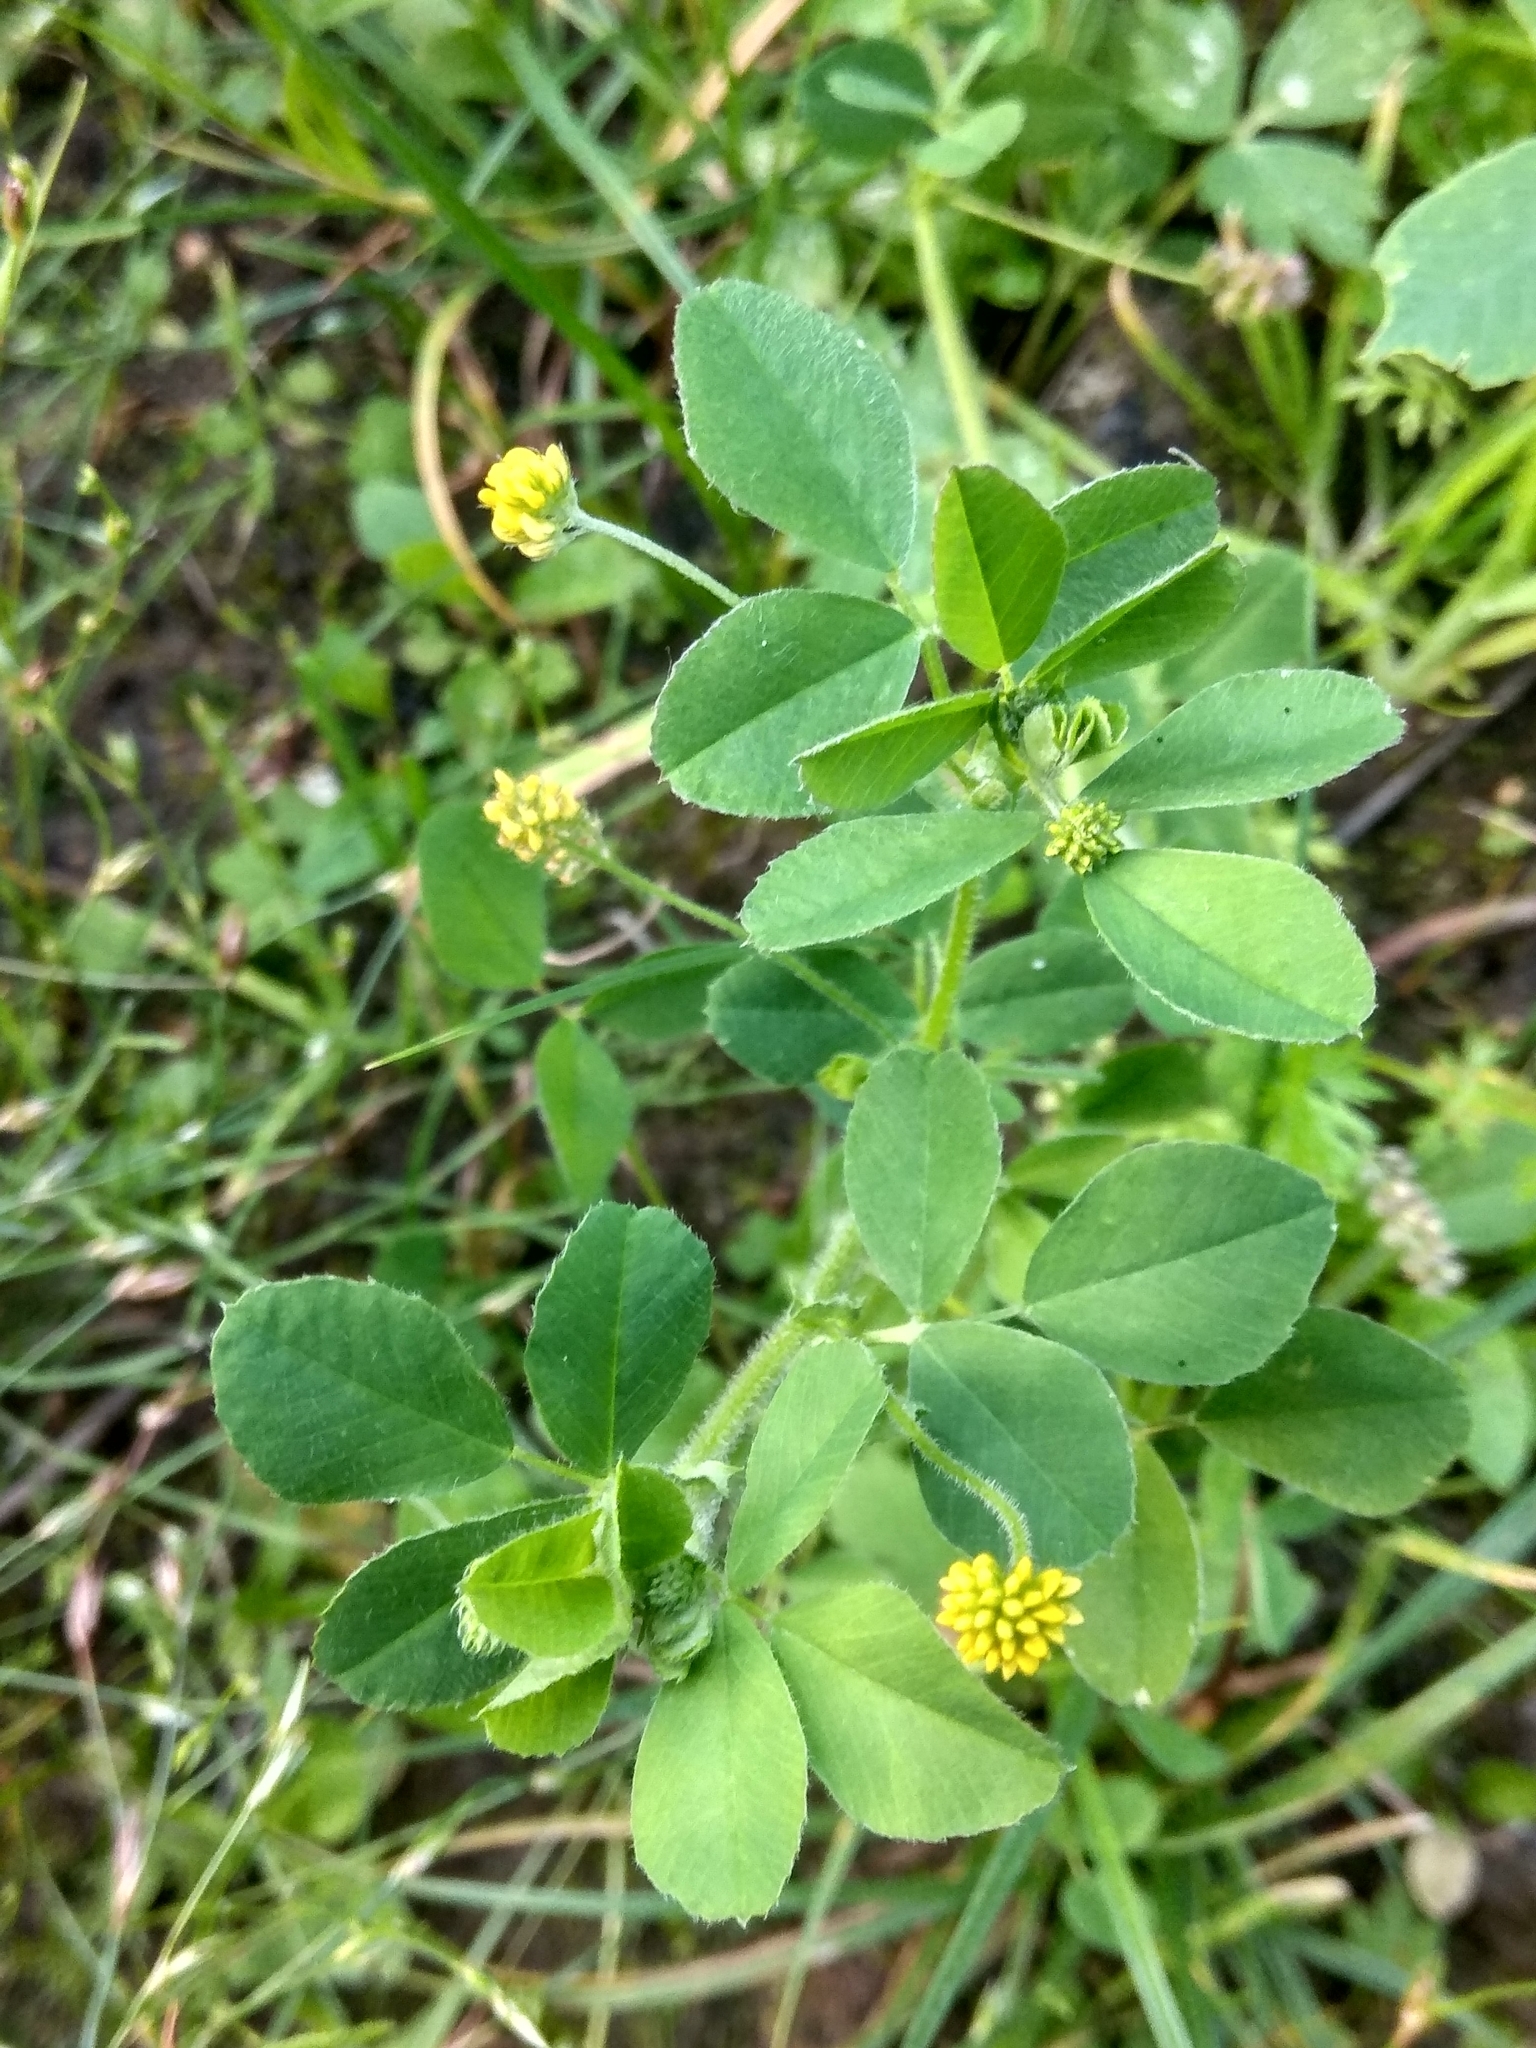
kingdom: Plantae
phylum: Tracheophyta
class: Magnoliopsida
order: Fabales
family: Fabaceae
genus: Medicago
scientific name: Medicago lupulina
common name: Black medick
